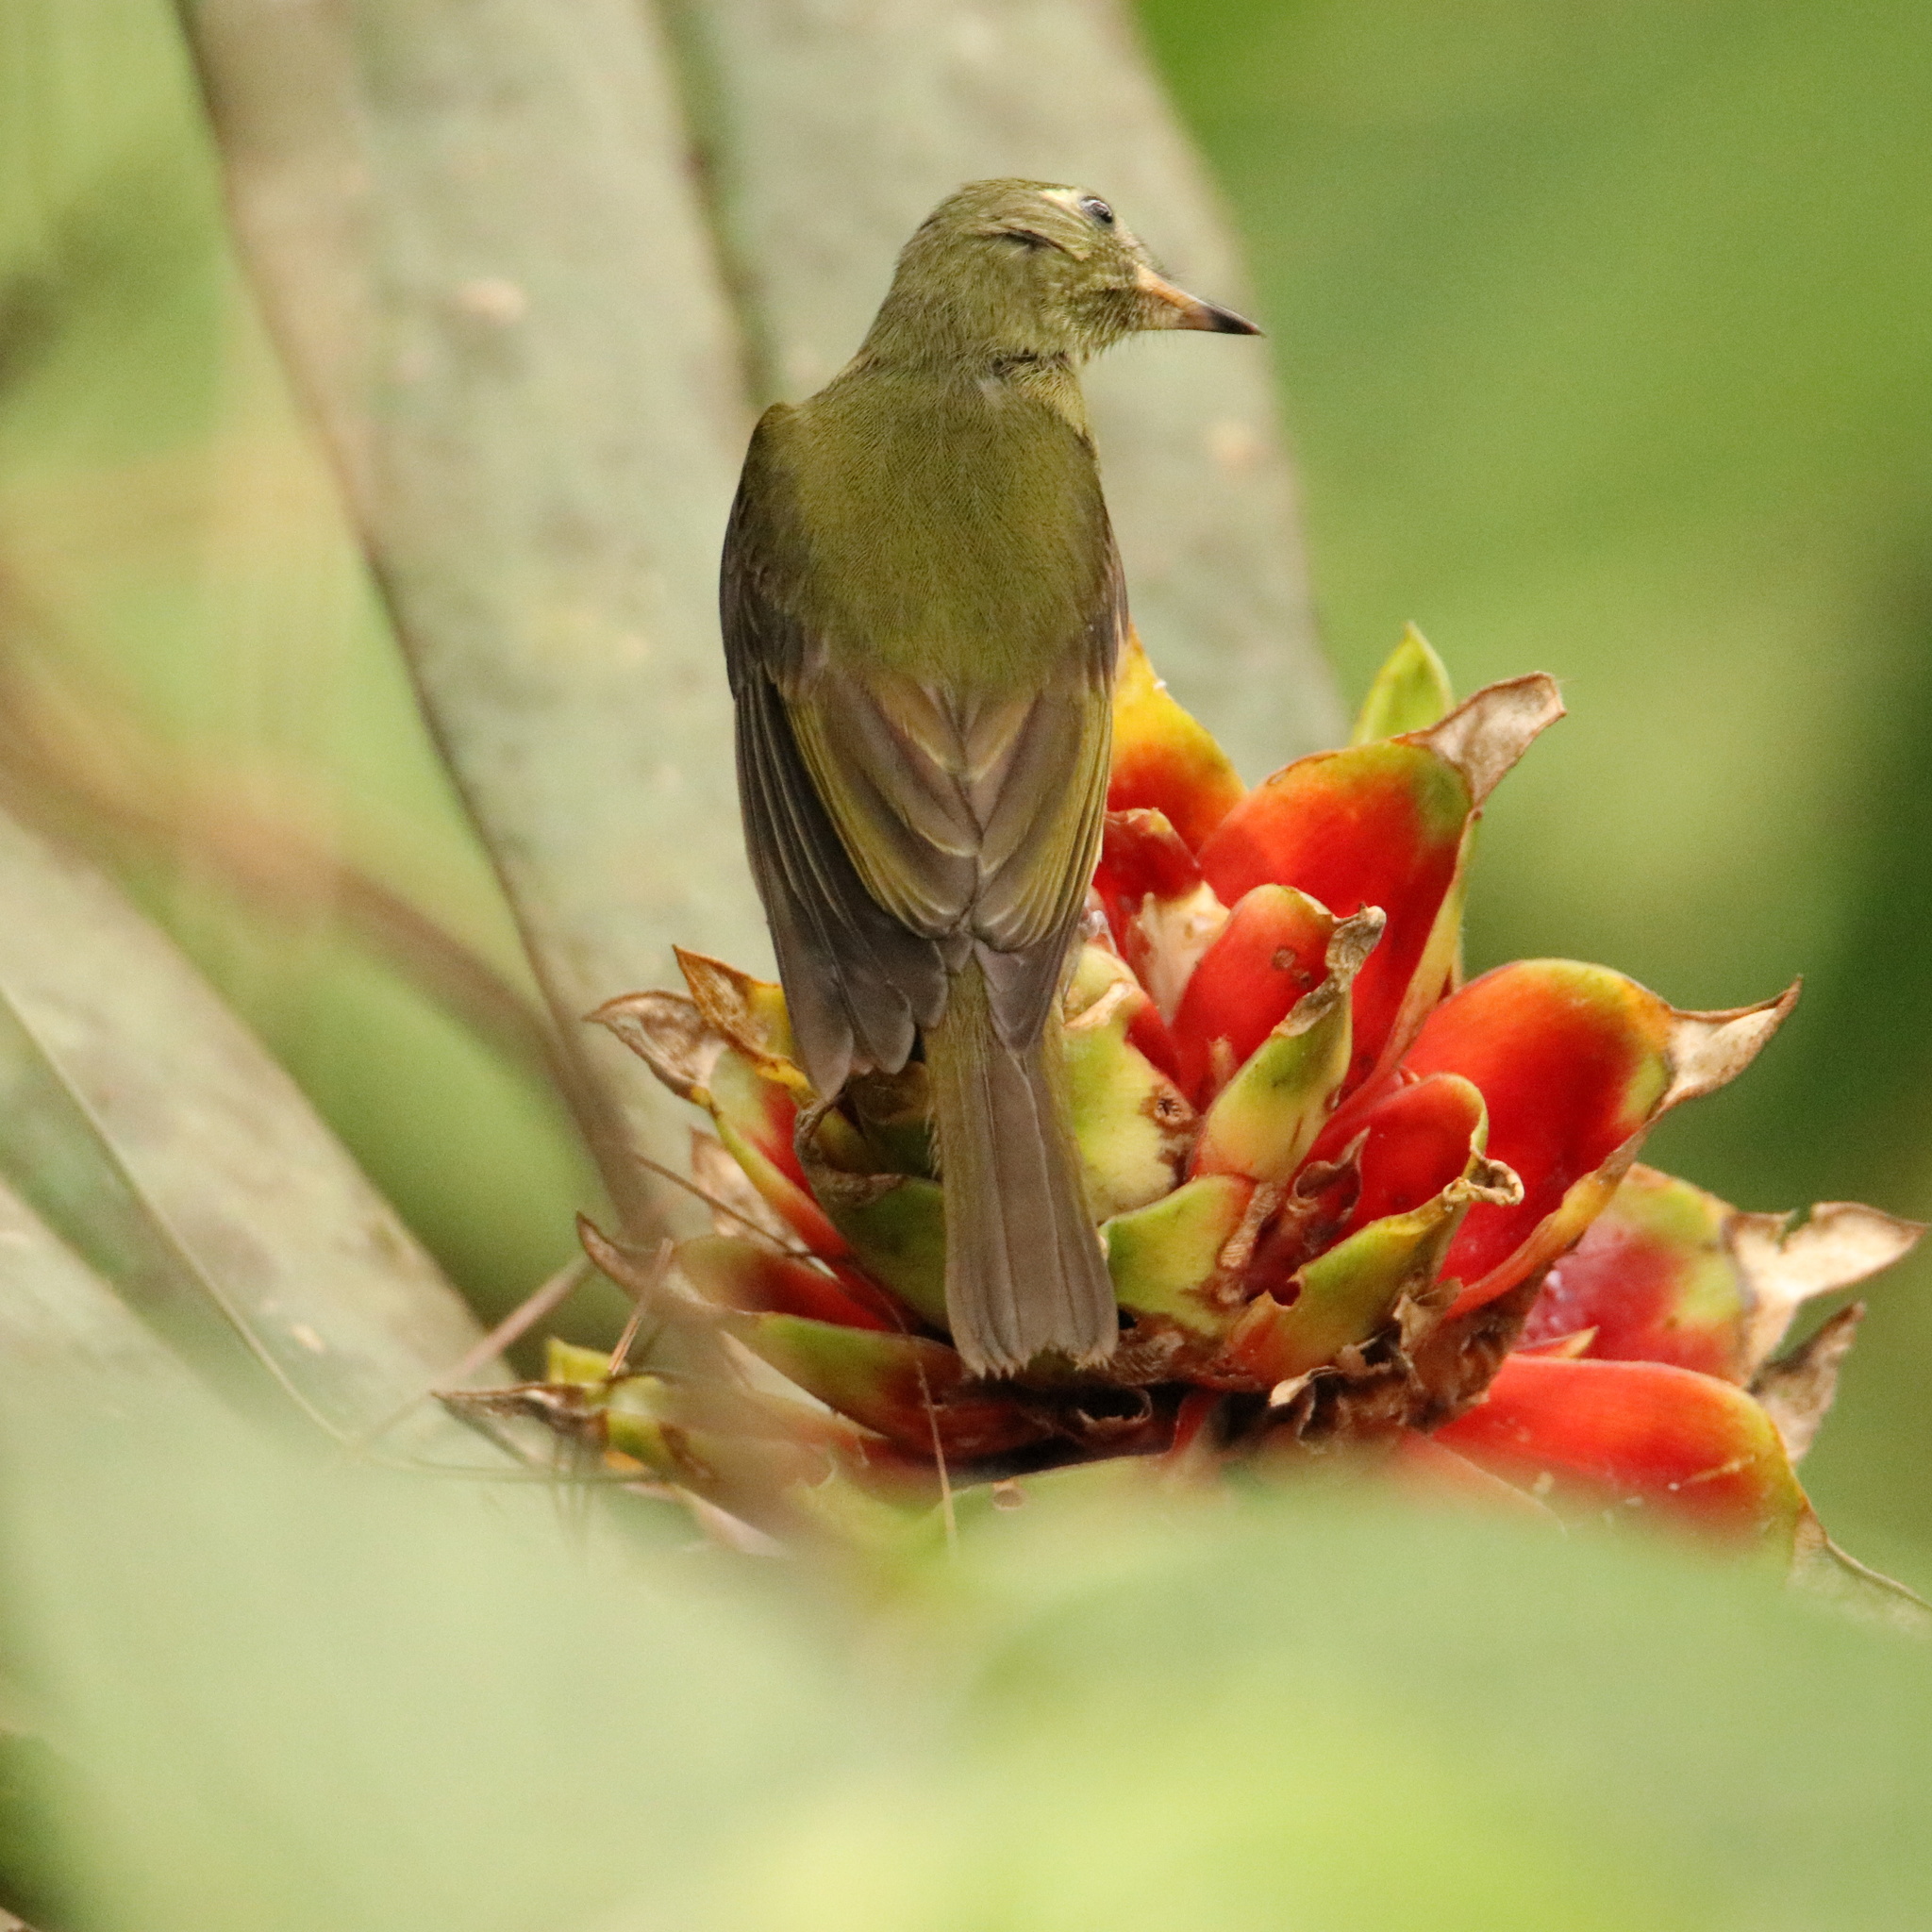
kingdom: Animalia
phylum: Chordata
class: Aves
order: Passeriformes
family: Tyrannidae
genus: Mionectes
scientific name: Mionectes galbinus
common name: Olive-striped flycatcher
